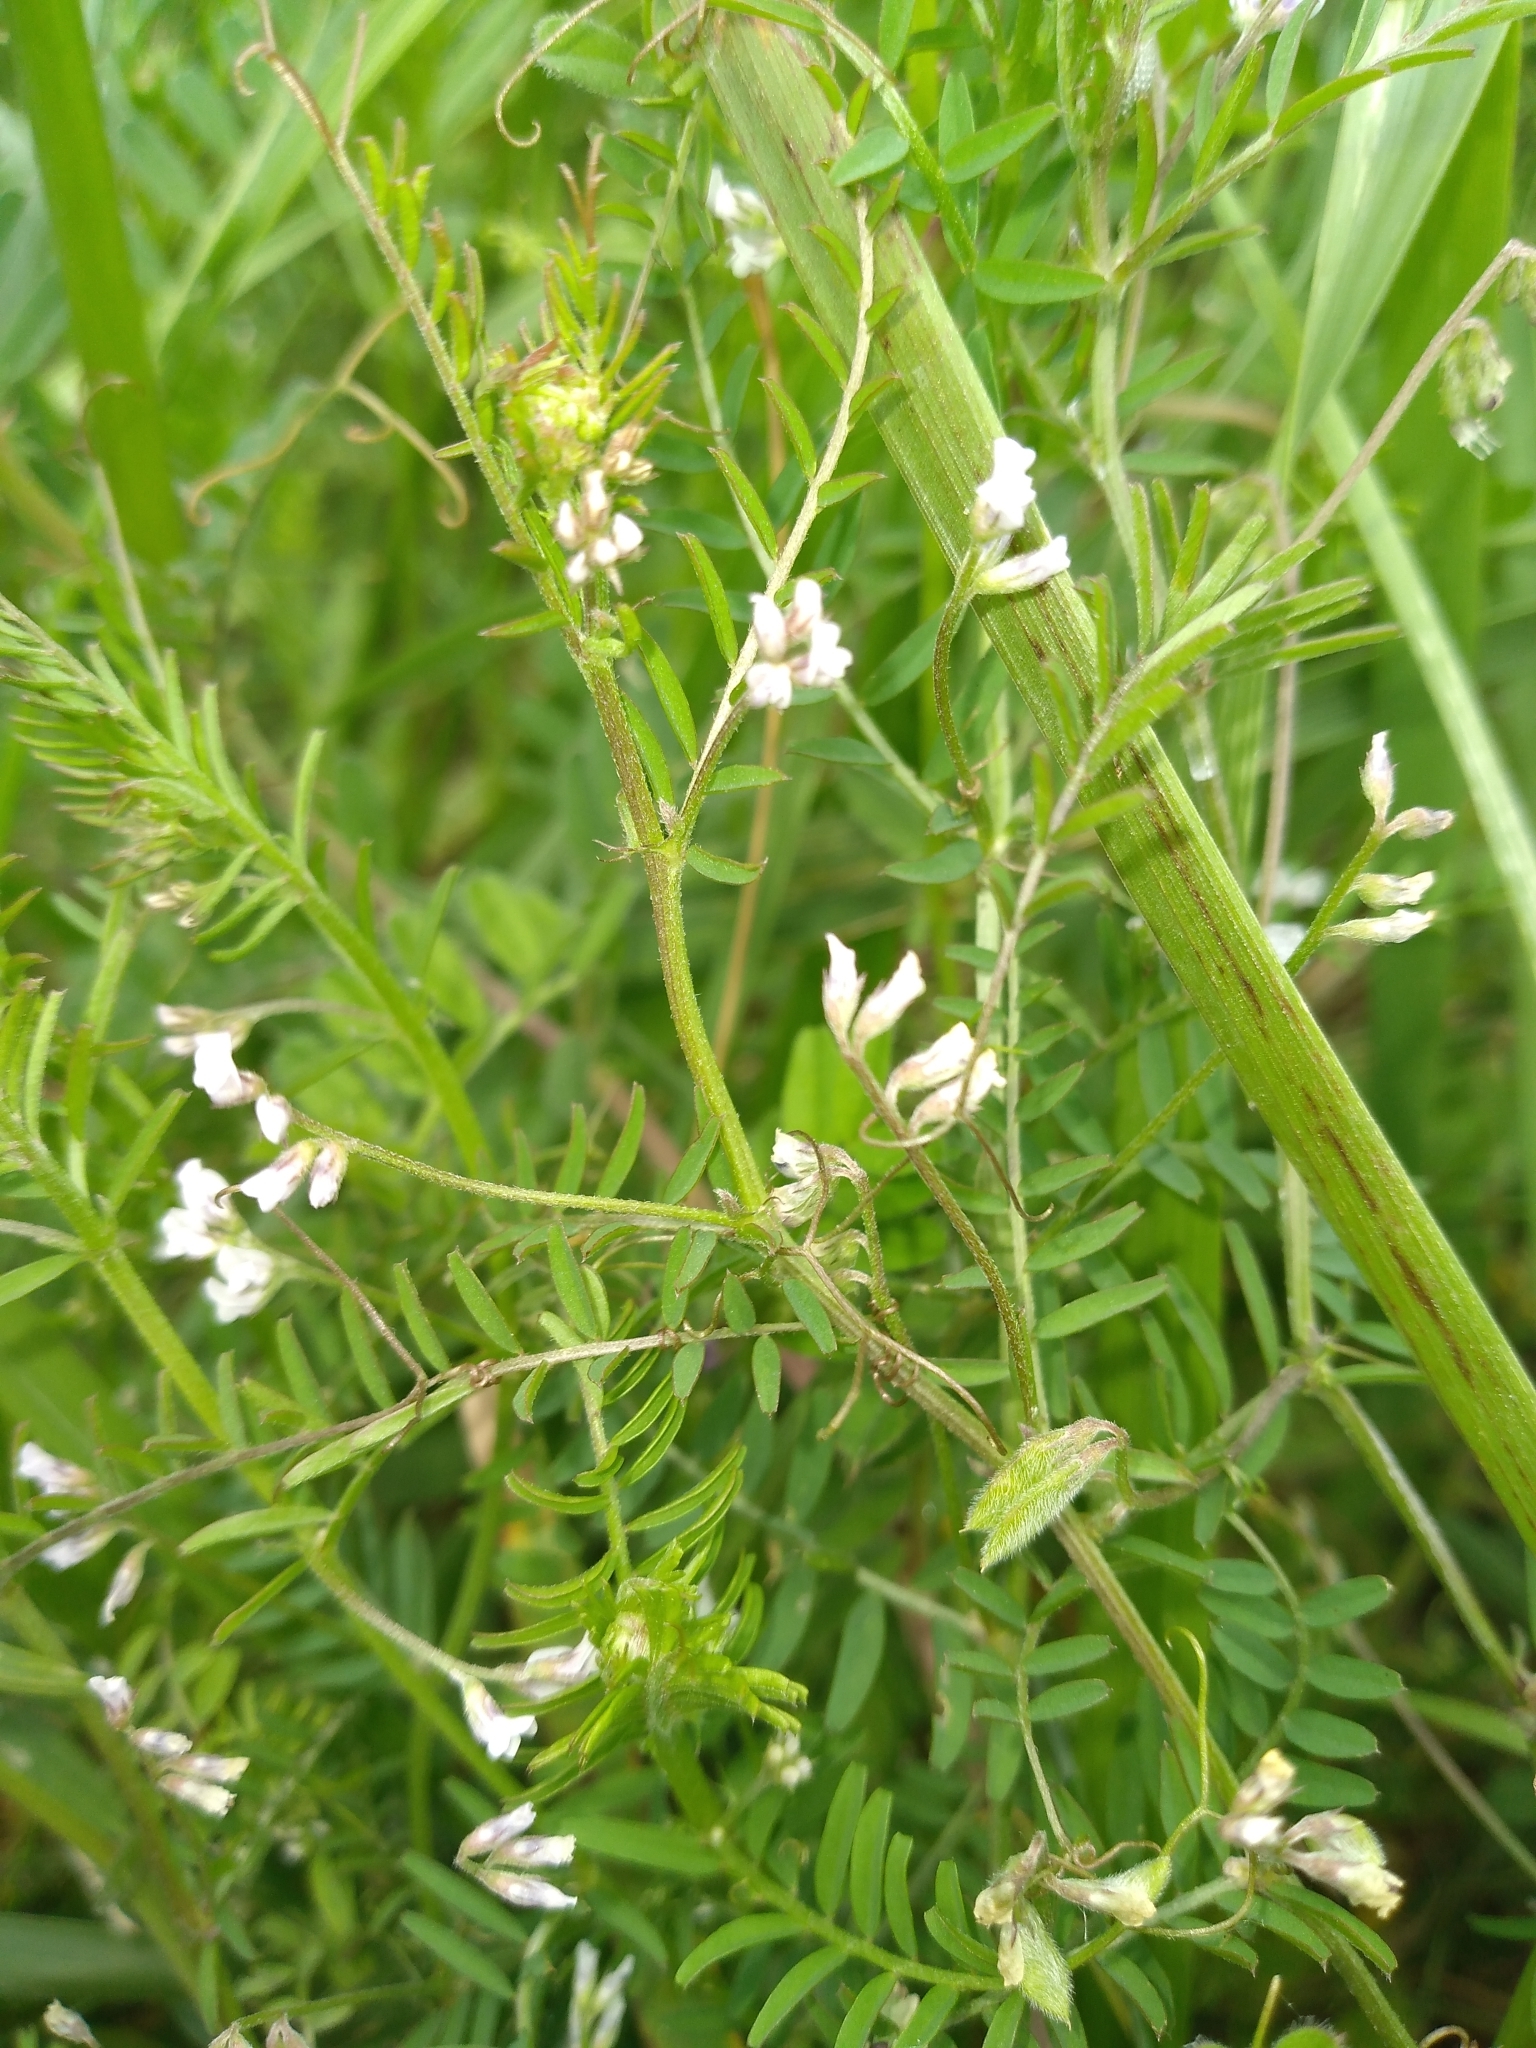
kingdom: Plantae
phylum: Tracheophyta
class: Magnoliopsida
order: Fabales
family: Fabaceae
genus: Vicia
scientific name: Vicia hirsuta
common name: Tiny vetch
